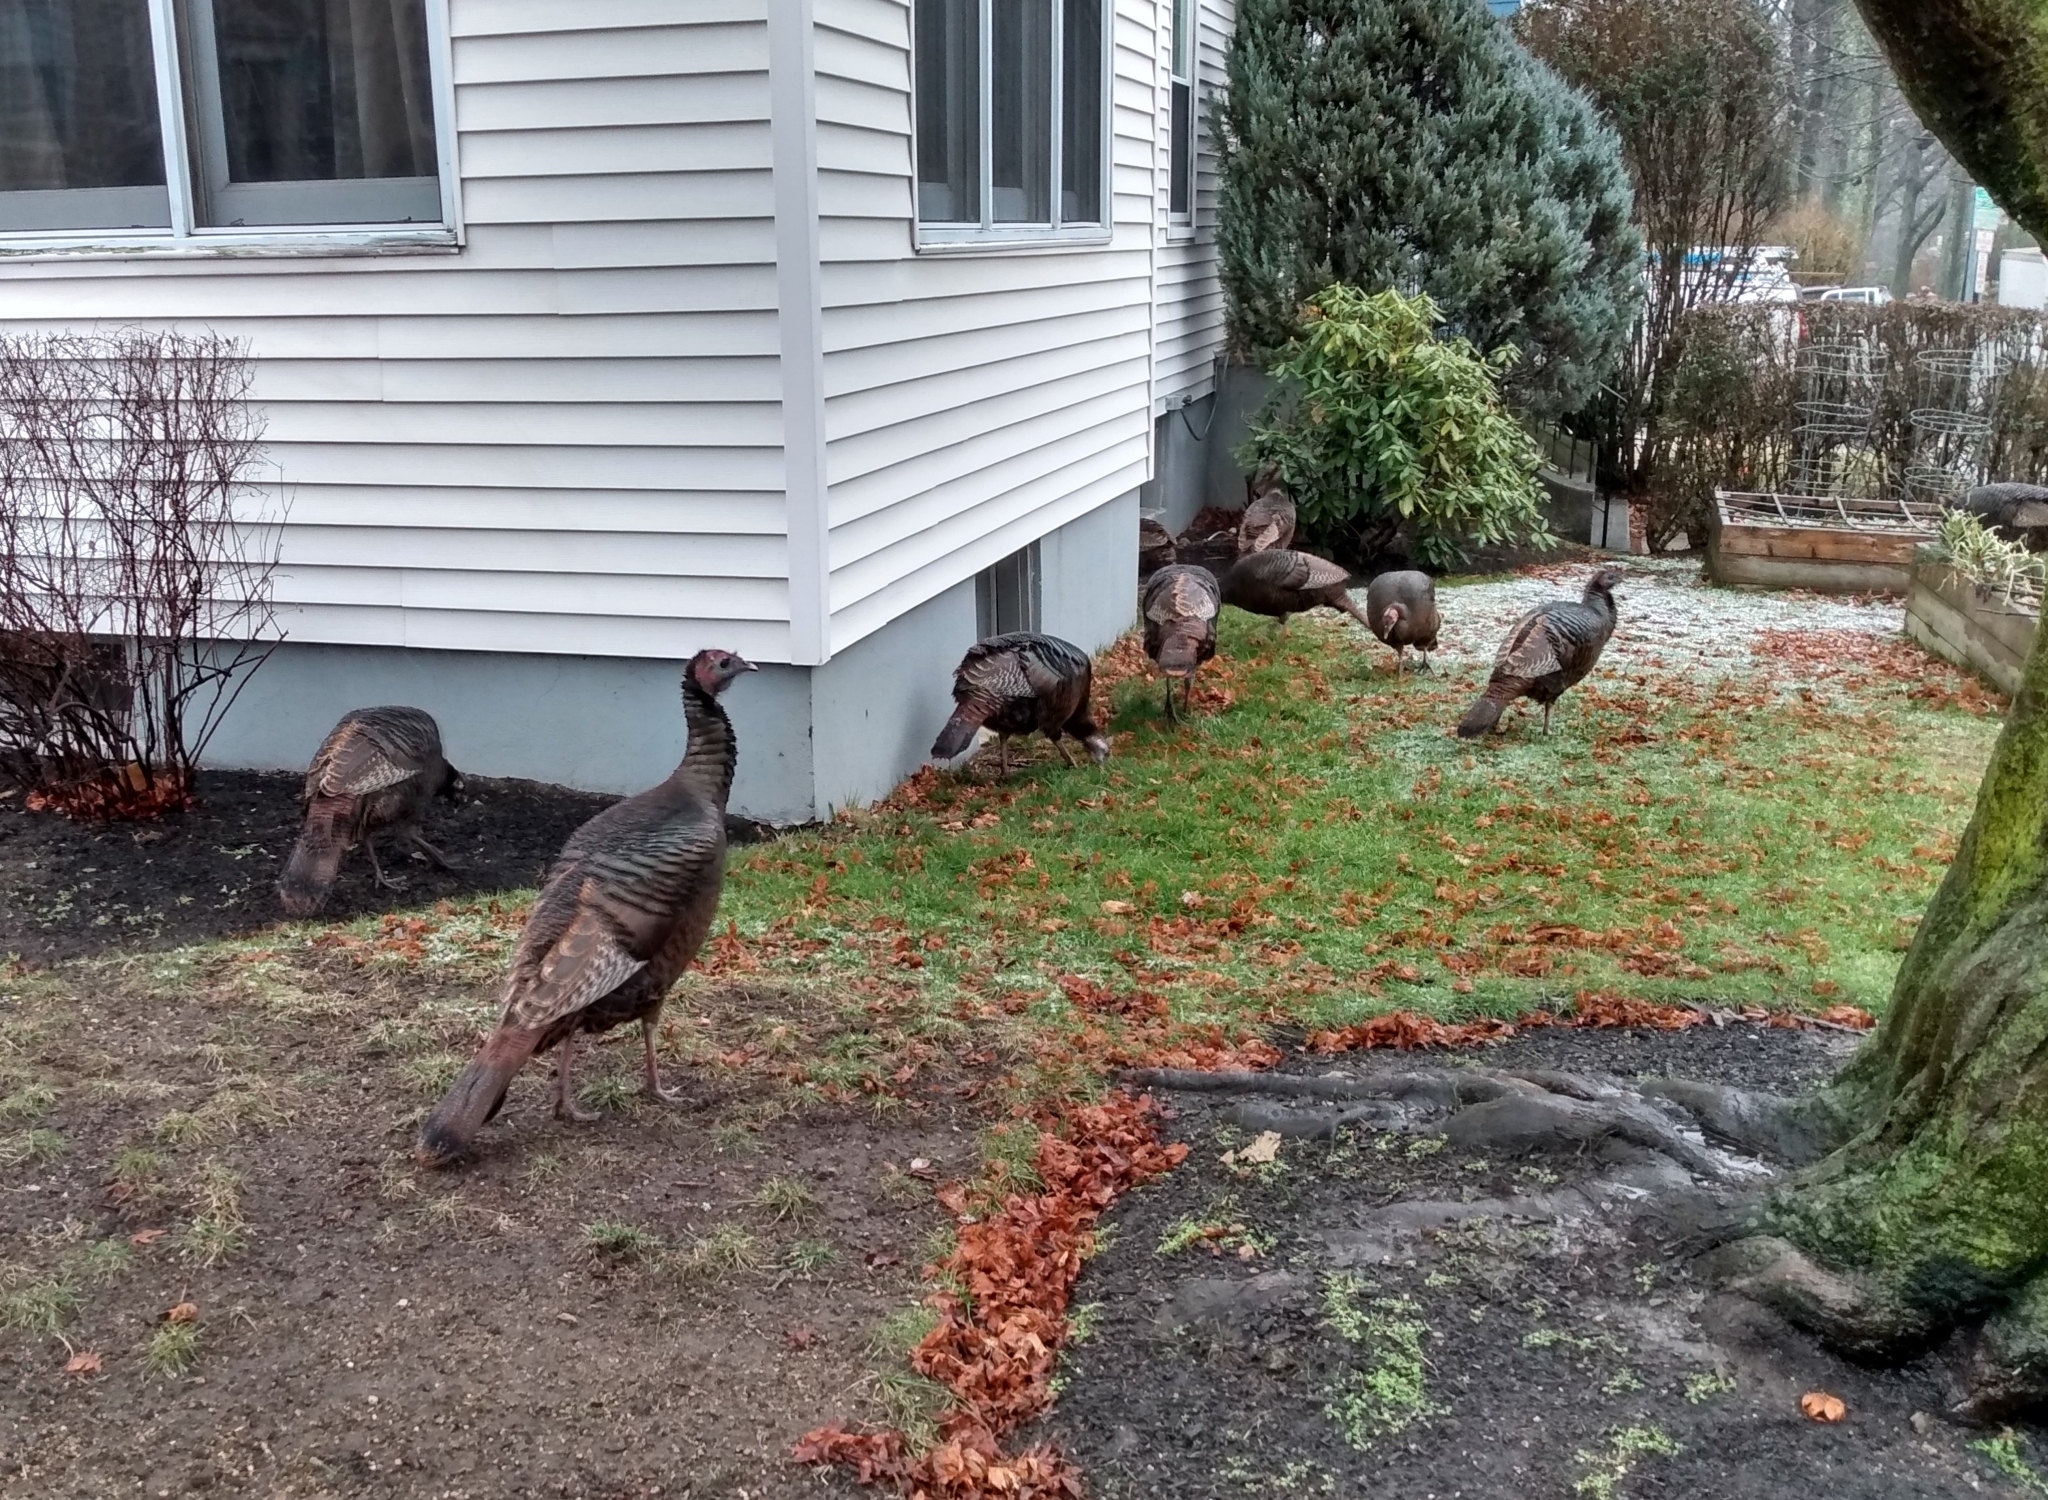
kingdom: Animalia
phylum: Chordata
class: Aves
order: Galliformes
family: Phasianidae
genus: Meleagris
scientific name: Meleagris gallopavo
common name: Wild turkey
